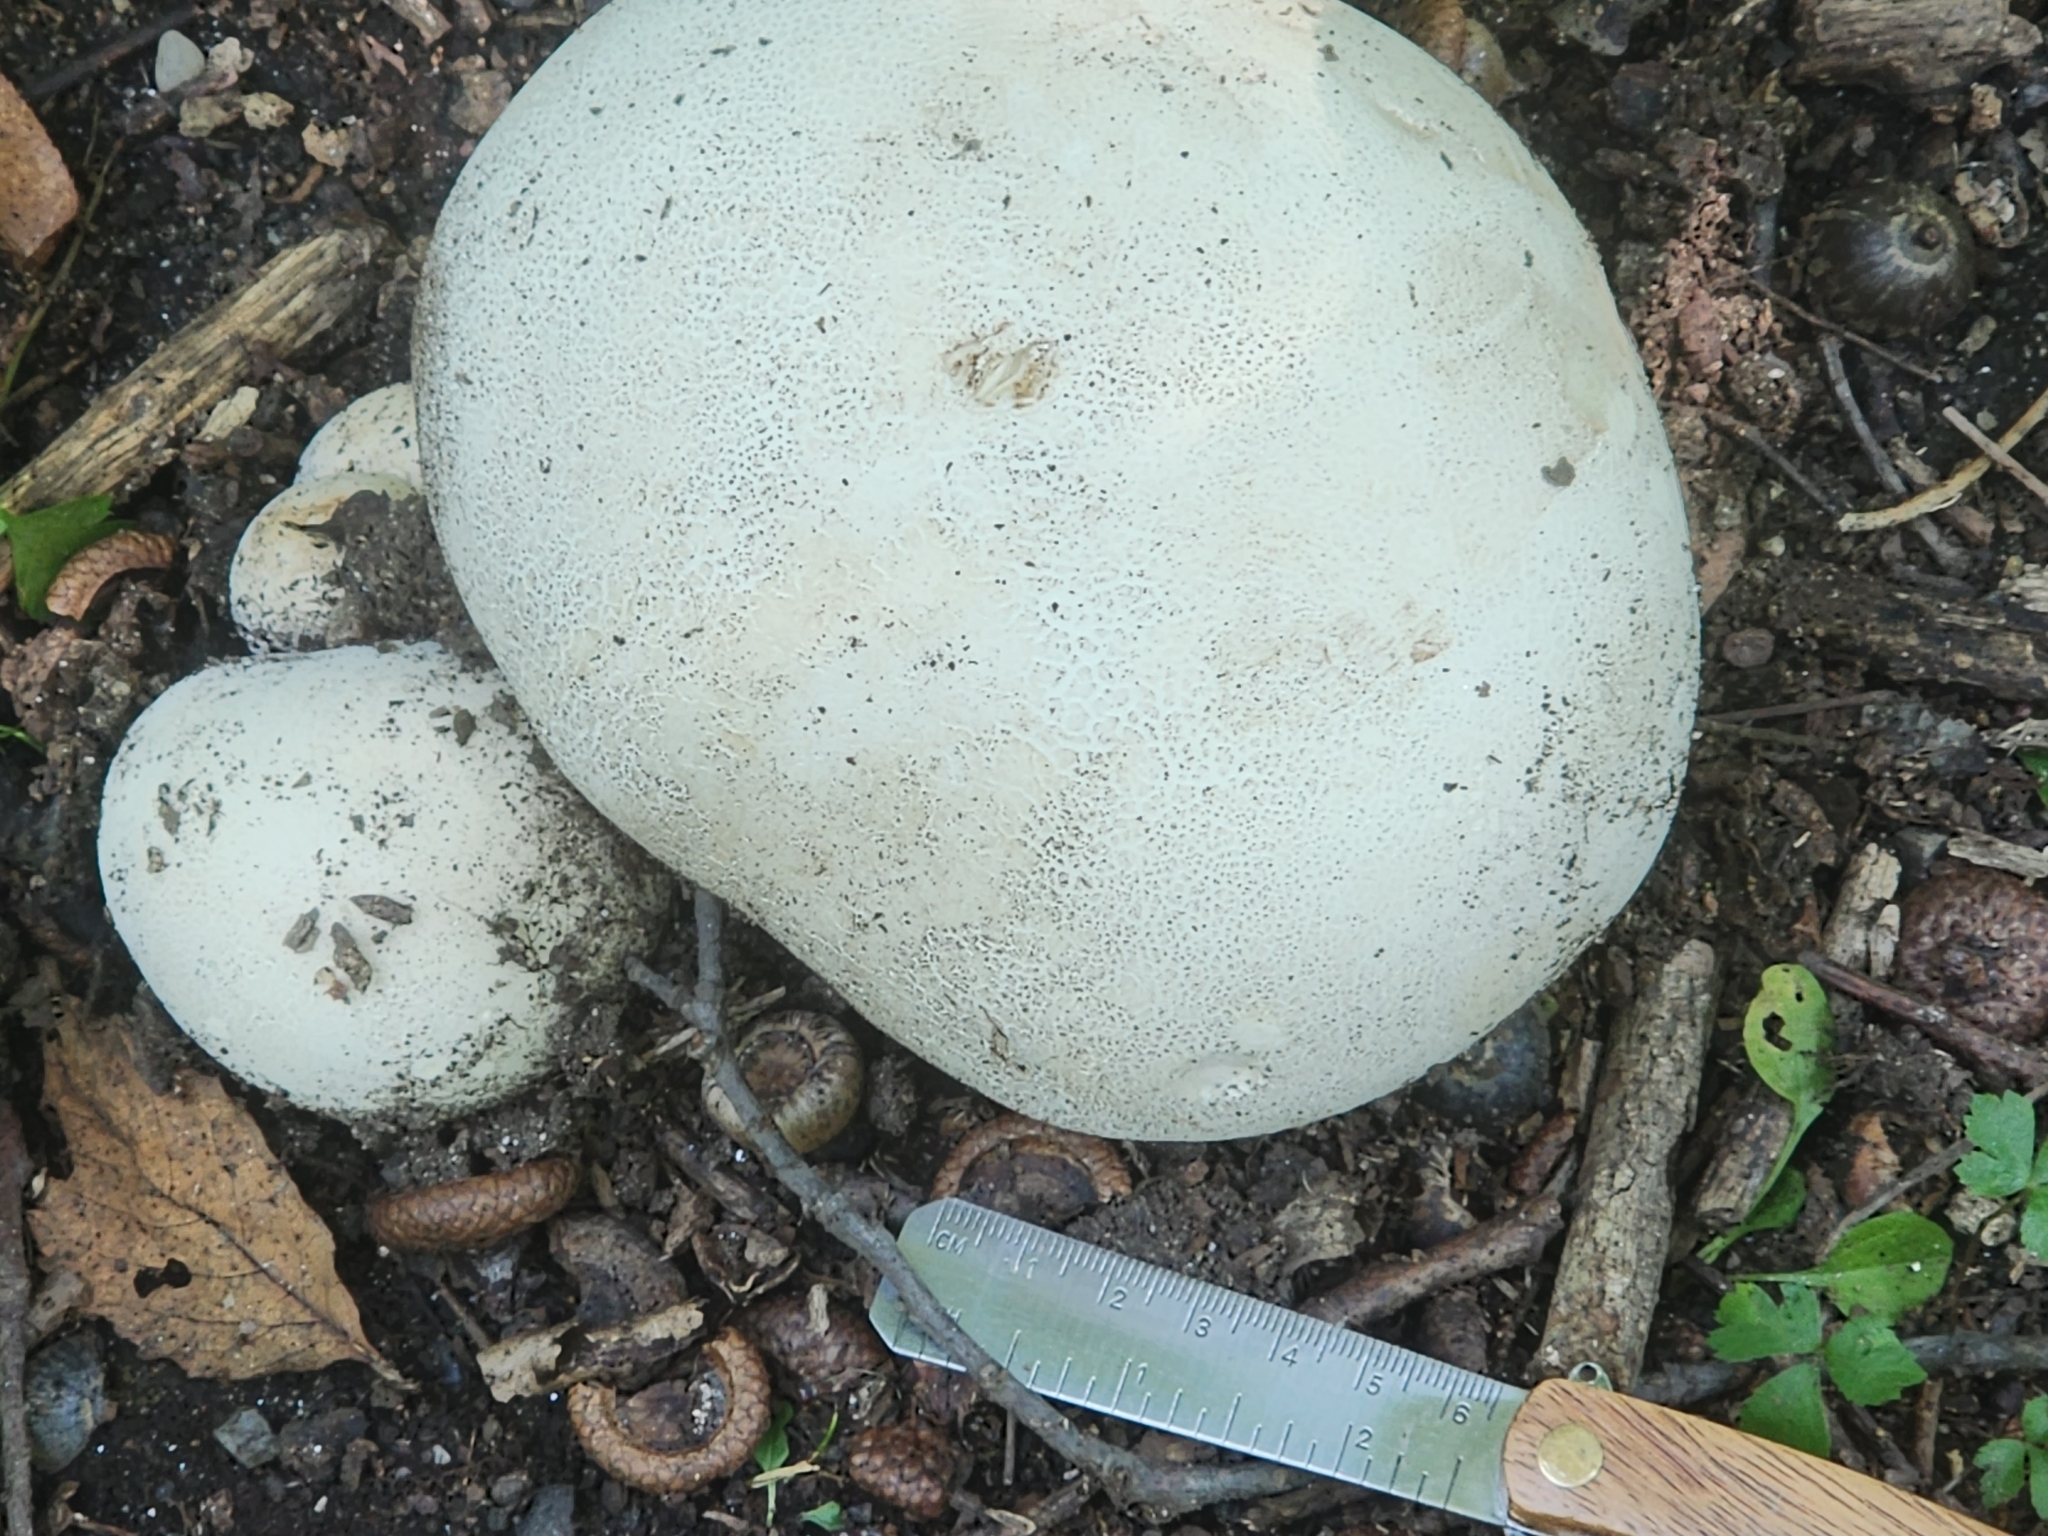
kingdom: Fungi
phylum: Basidiomycota
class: Agaricomycetes
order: Agaricales
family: Lycoperdaceae
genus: Calvatia
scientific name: Calvatia gigantea
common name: Giant puffball
